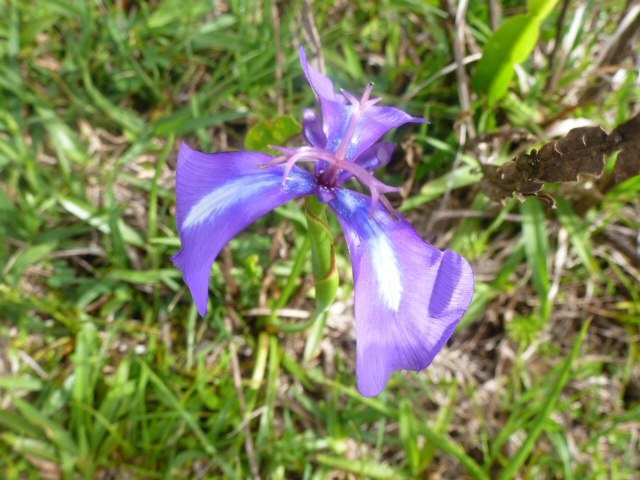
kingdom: Plantae
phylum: Tracheophyta
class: Liliopsida
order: Asparagales
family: Iridaceae
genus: Herbertia
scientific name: Herbertia pulchella
